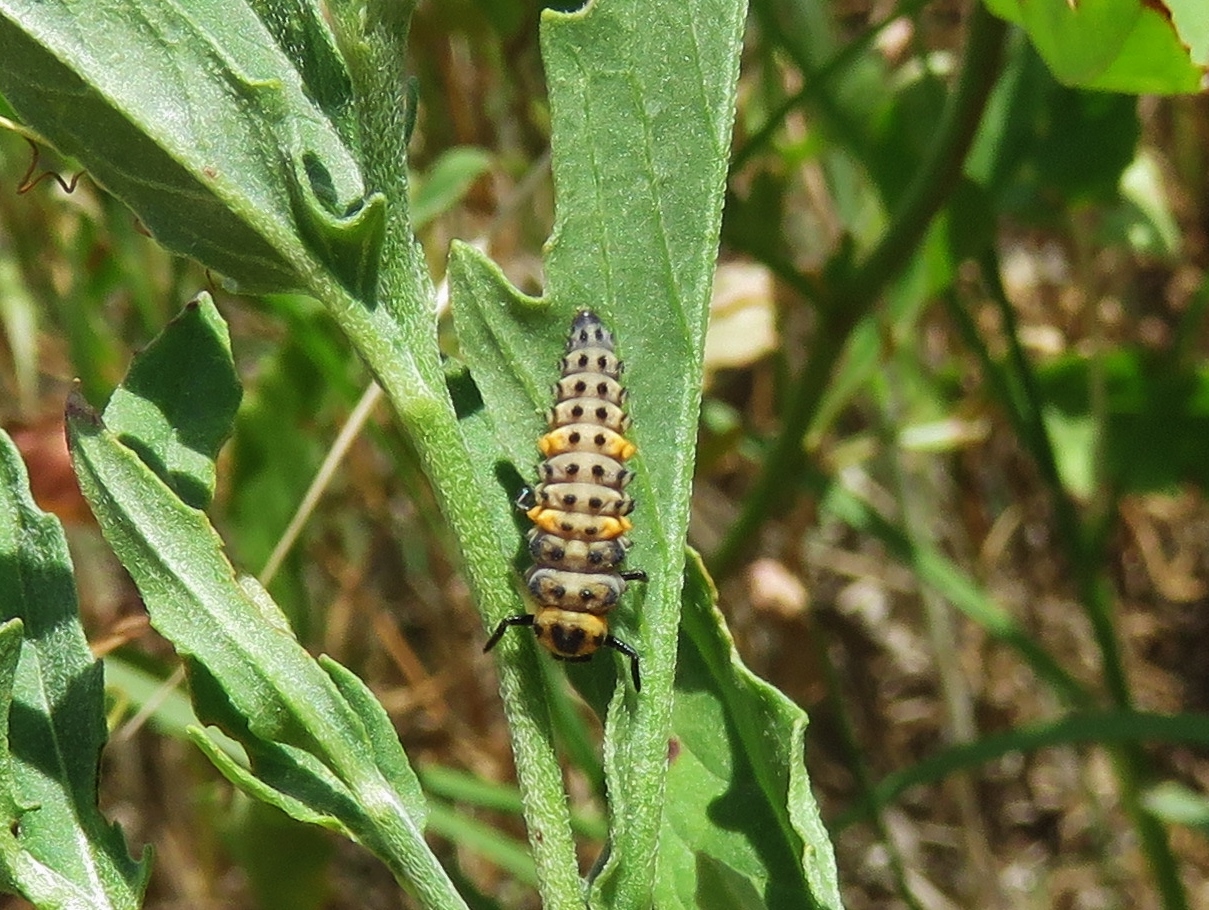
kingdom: Animalia
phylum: Arthropoda
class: Insecta
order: Coleoptera
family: Coccinellidae
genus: Coccinella
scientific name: Coccinella septempunctata
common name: Sevenspotted lady beetle
